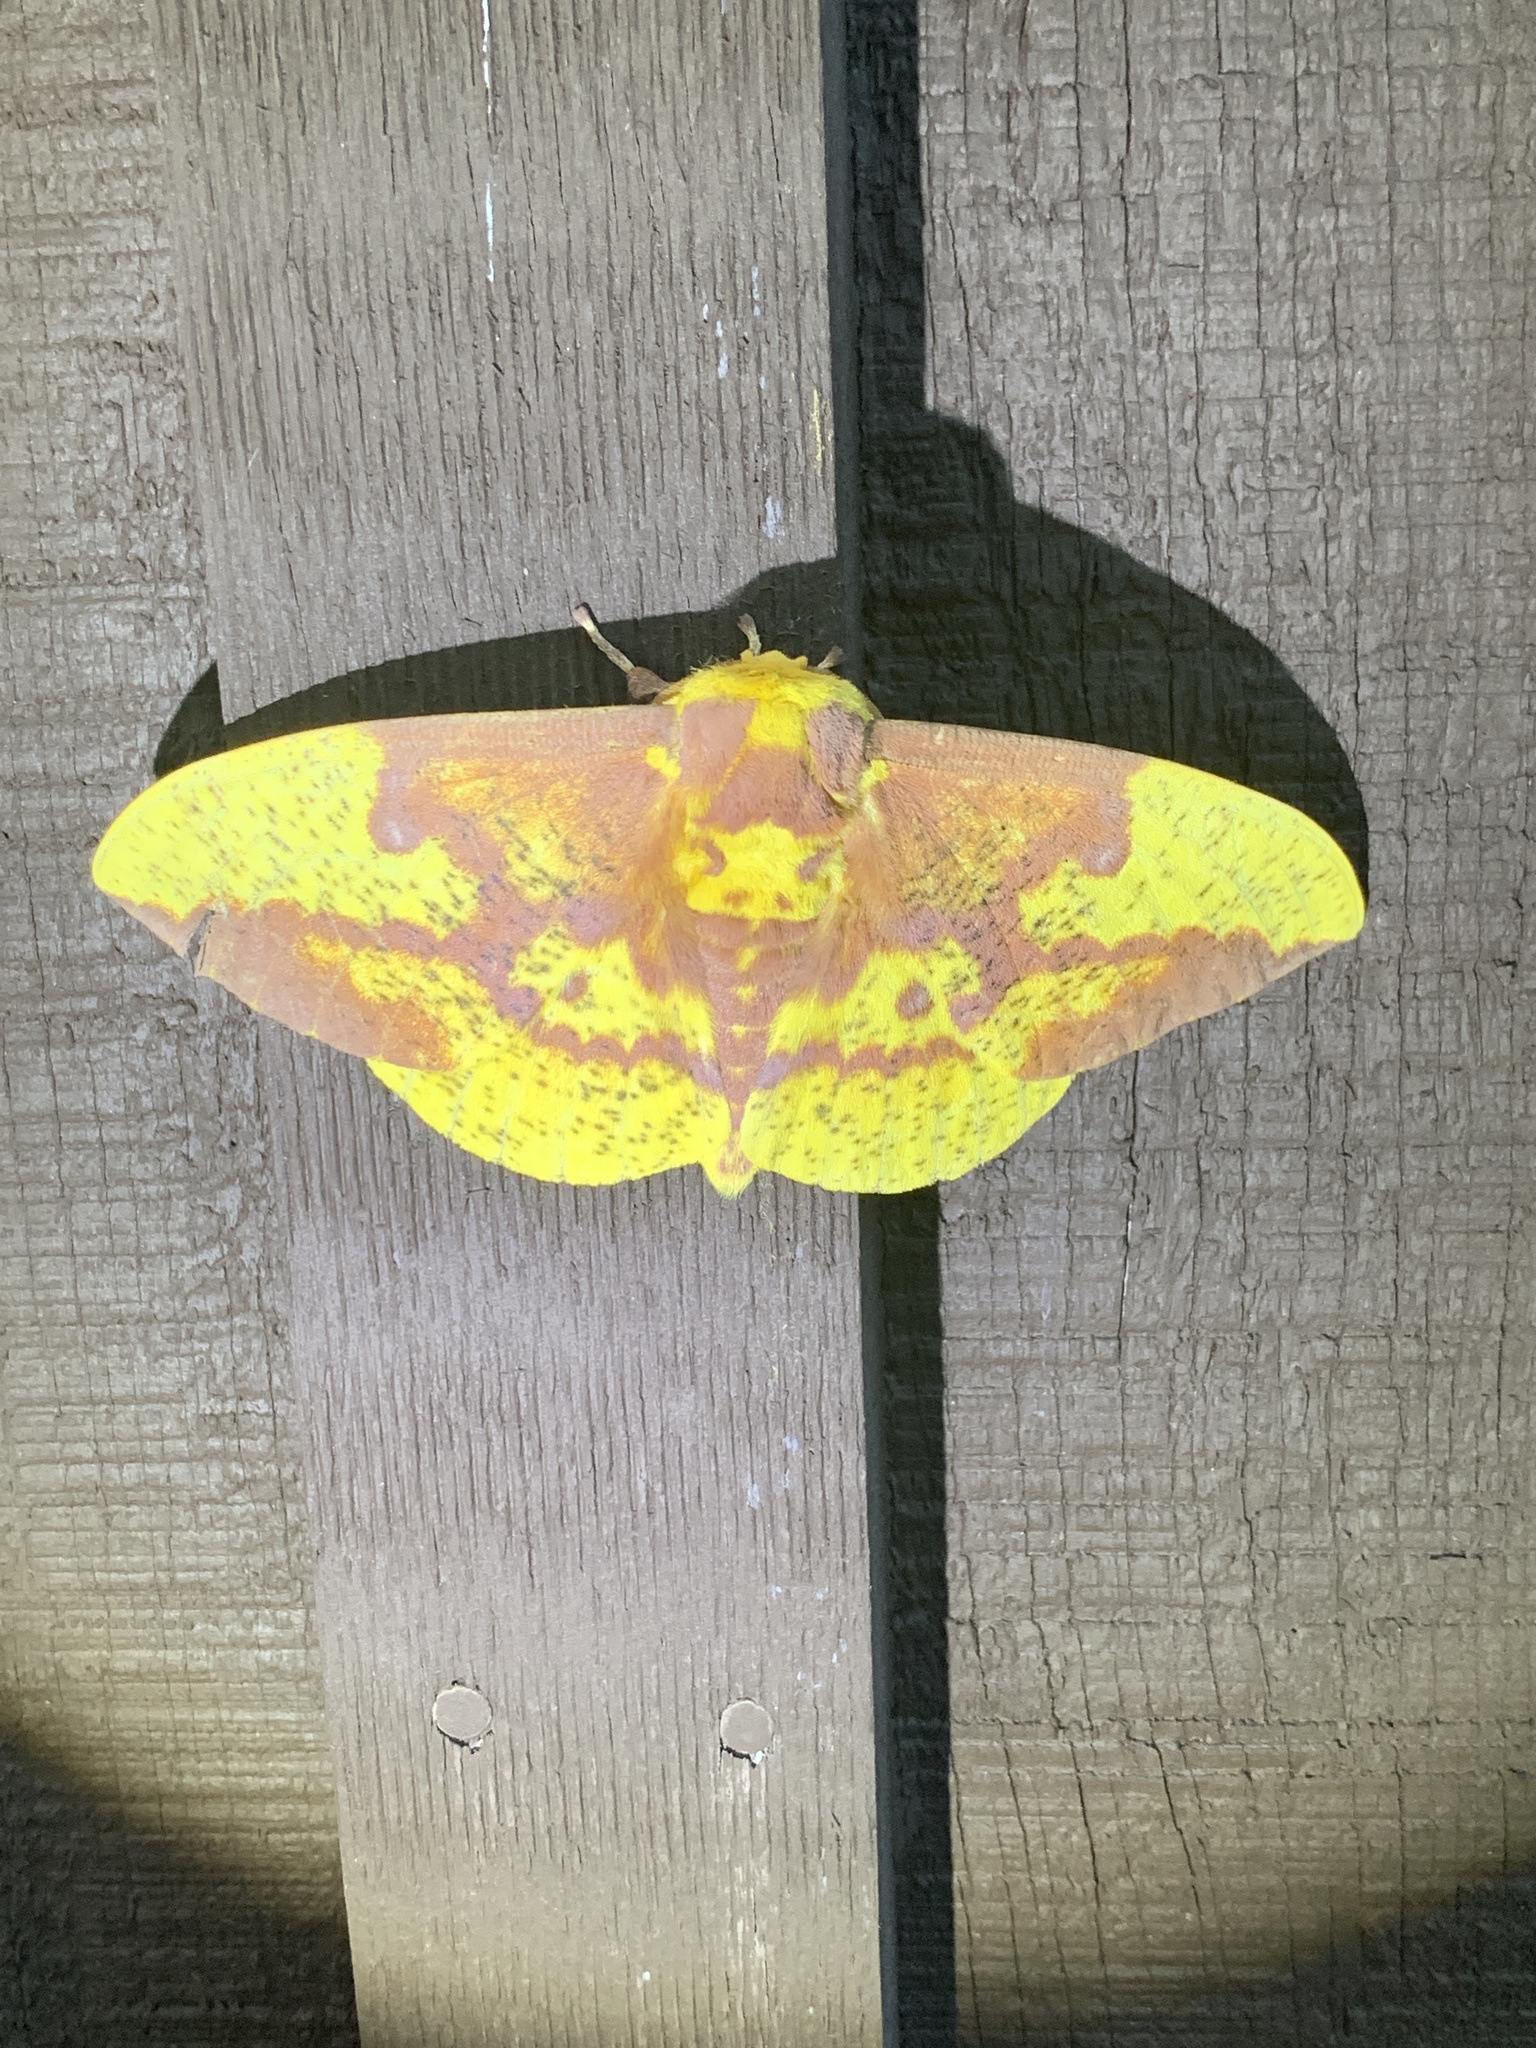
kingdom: Animalia
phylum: Arthropoda
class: Insecta
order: Lepidoptera
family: Saturniidae
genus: Eacles
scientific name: Eacles imperialis
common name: Imperial moth
